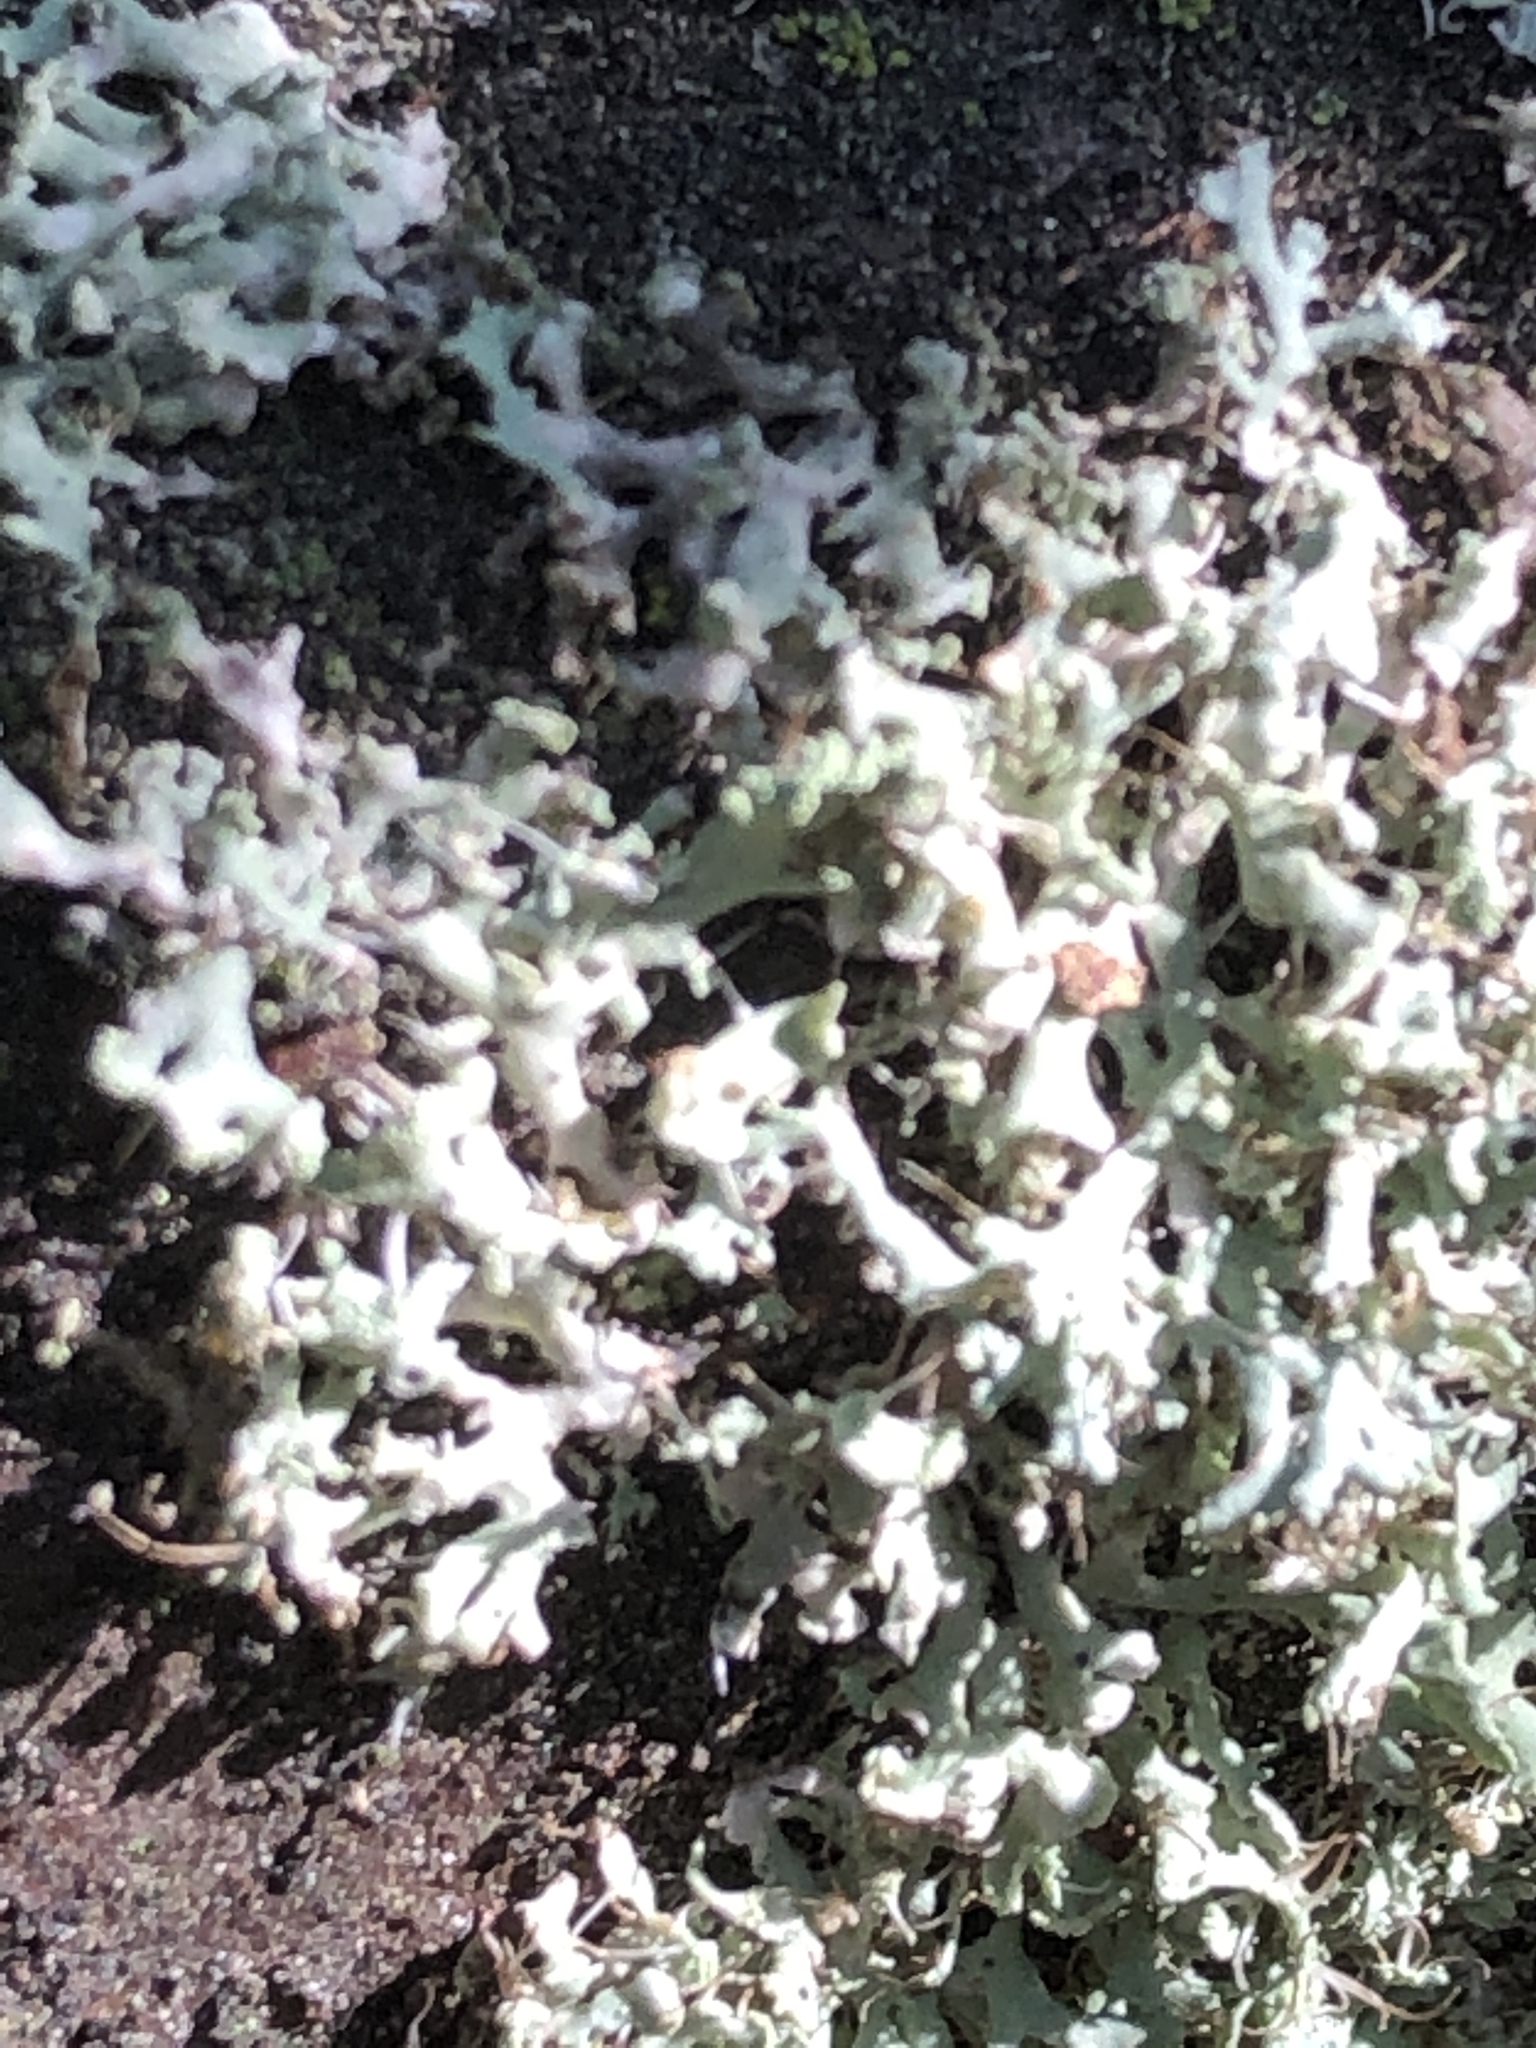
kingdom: Fungi
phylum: Ascomycota
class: Lecanoromycetes
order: Caliciales
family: Physciaceae
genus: Physcia
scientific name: Physcia adscendens
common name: Hooded rosette lichen
